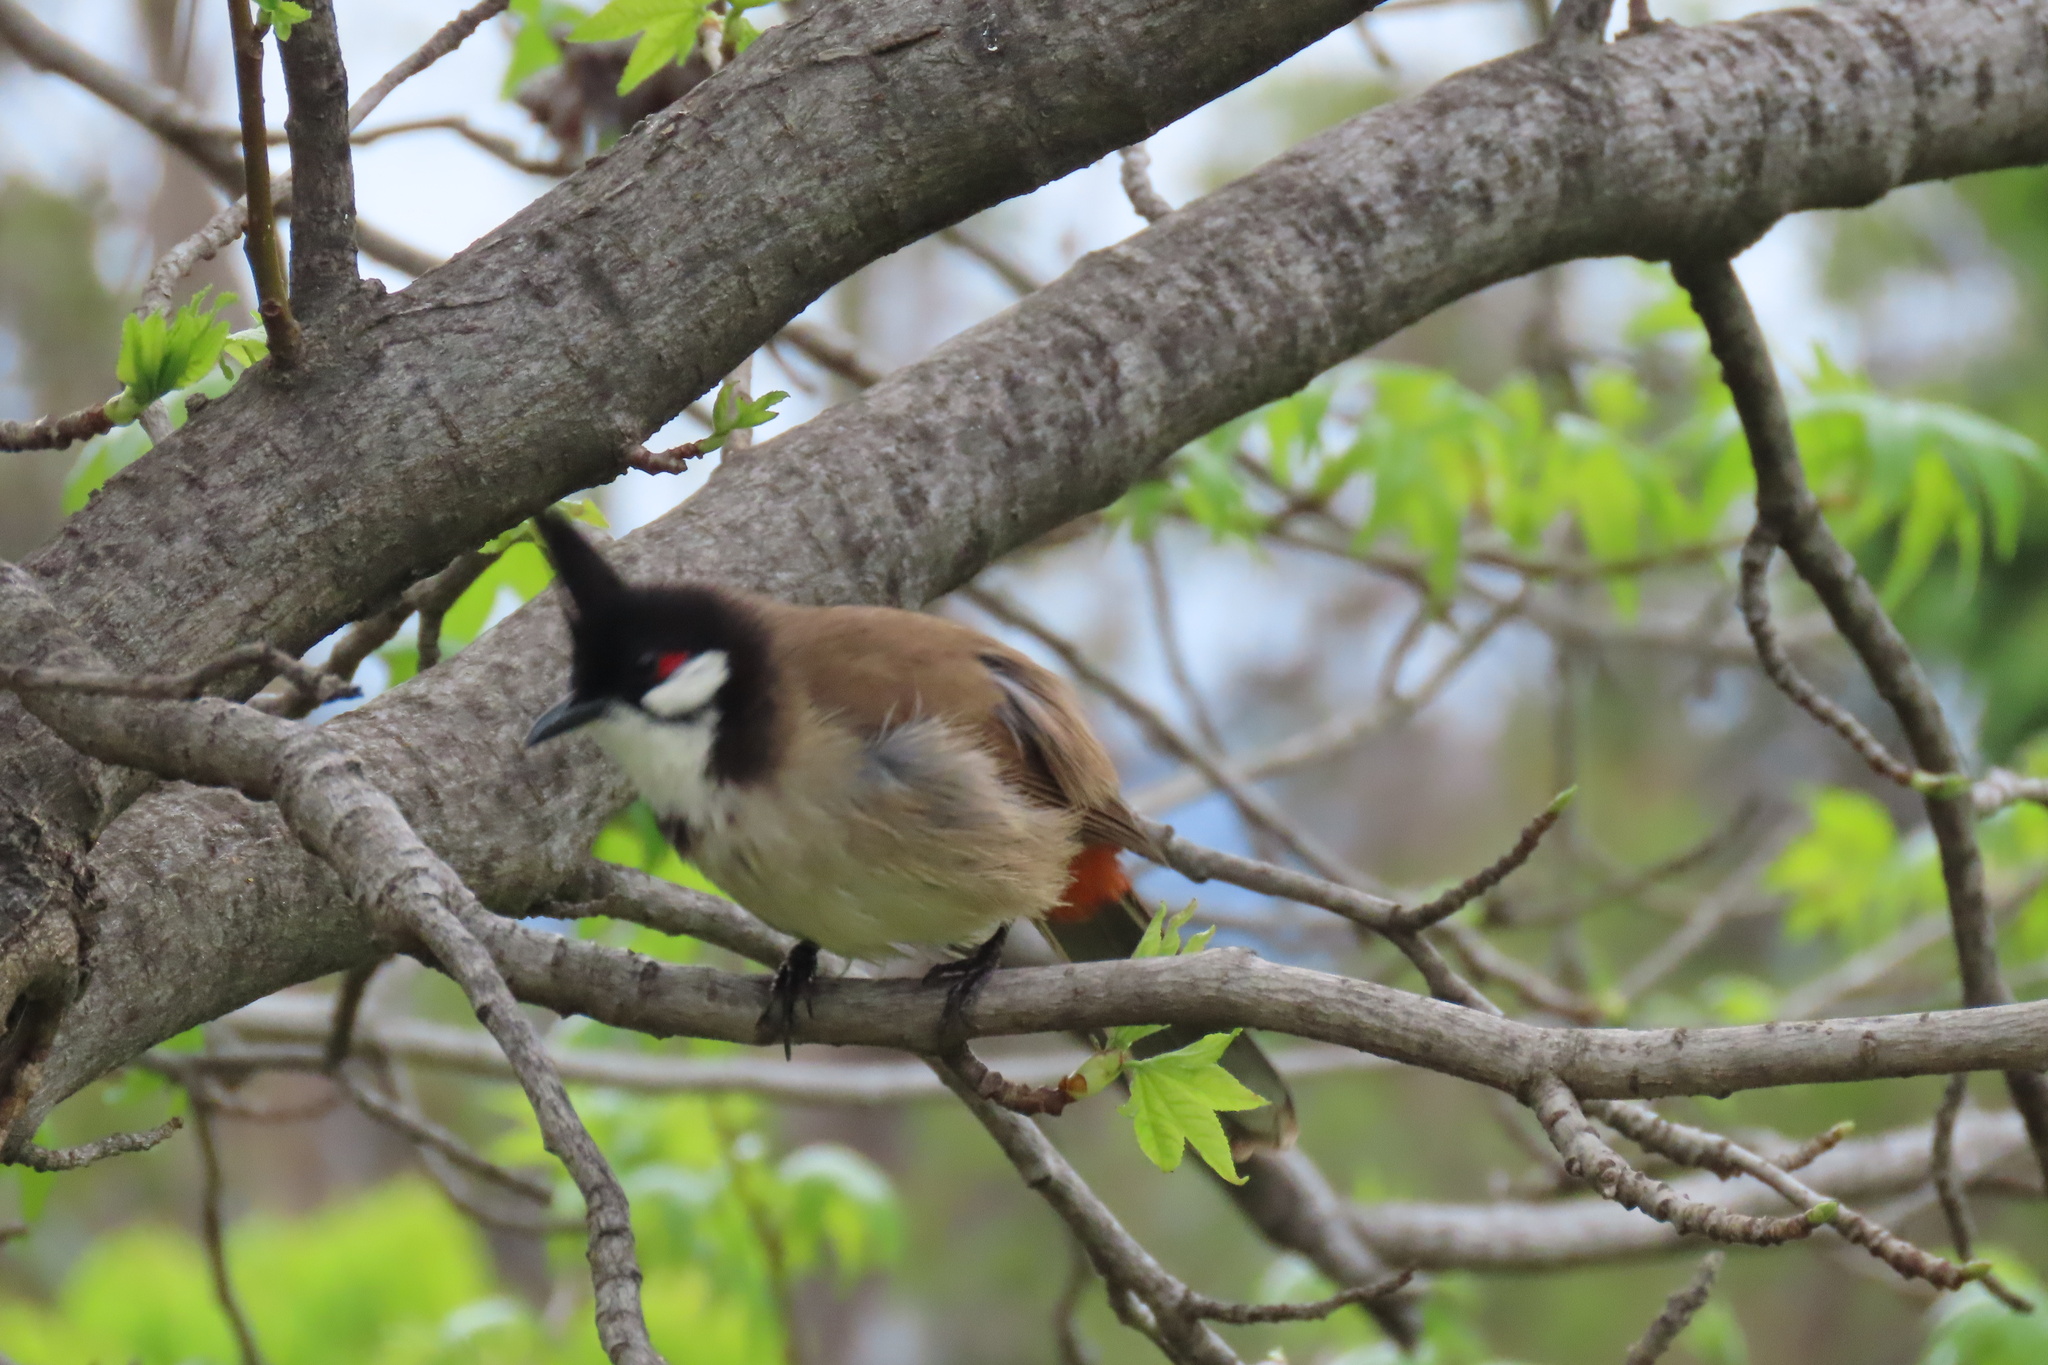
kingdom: Animalia
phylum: Chordata
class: Aves
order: Passeriformes
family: Pycnonotidae
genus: Pycnonotus
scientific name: Pycnonotus jocosus
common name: Red-whiskered bulbul
